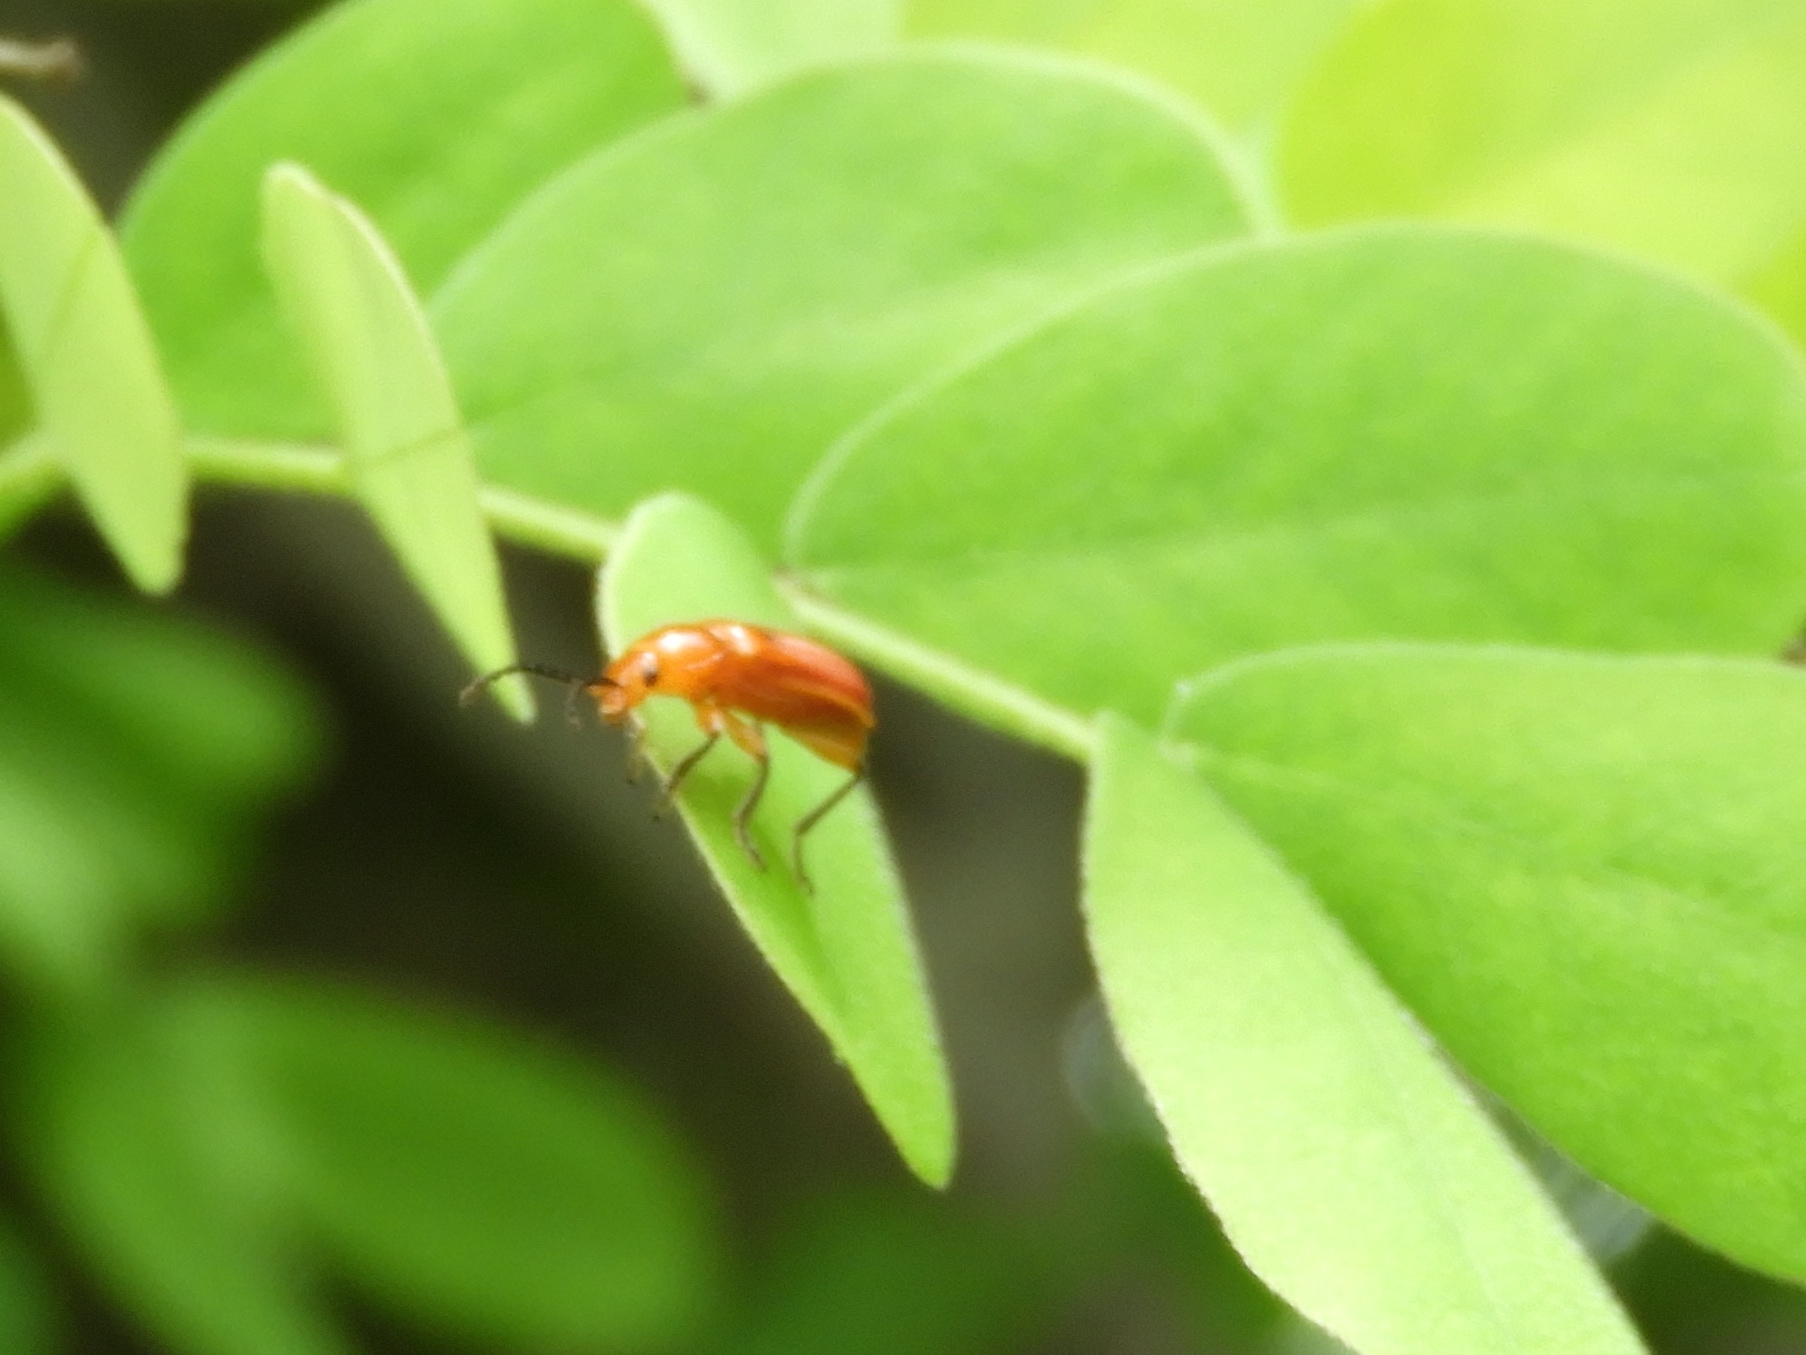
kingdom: Animalia
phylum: Arthropoda
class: Insecta
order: Coleoptera
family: Orsodacnidae
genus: Janbechynea
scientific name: Janbechynea
